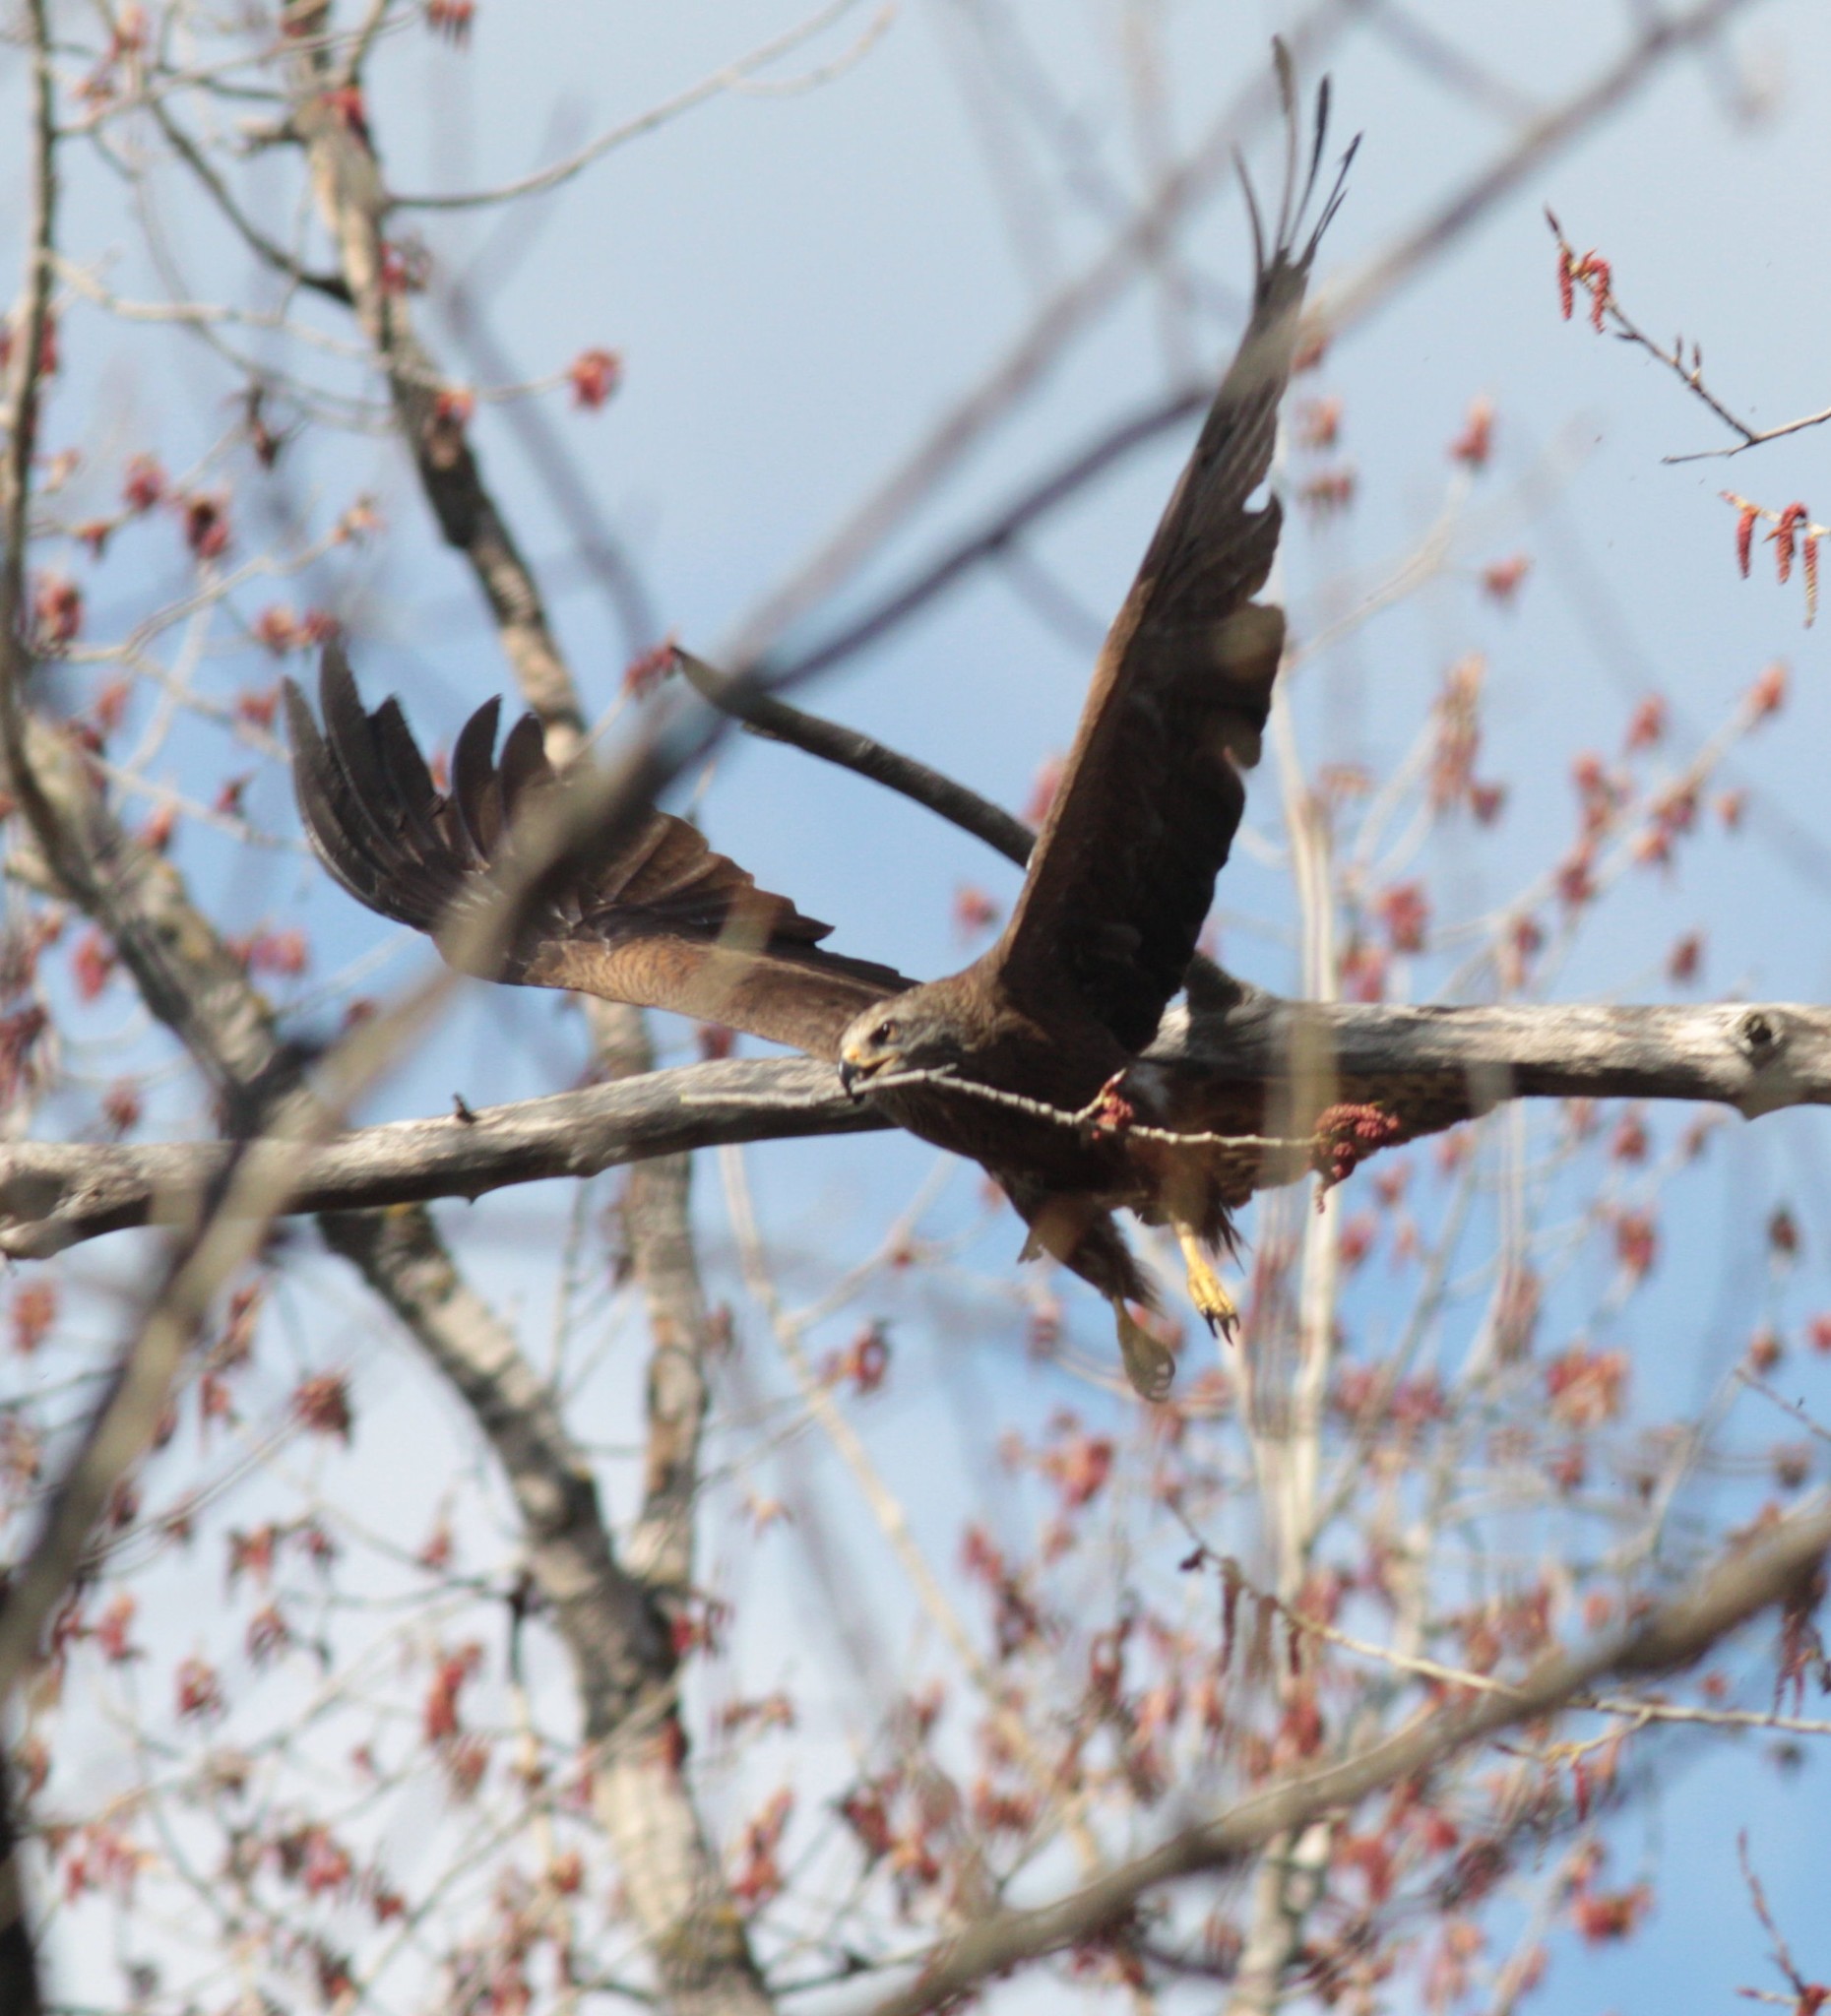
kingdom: Animalia
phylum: Chordata
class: Aves
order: Accipitriformes
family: Accipitridae
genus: Milvus
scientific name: Milvus migrans
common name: Black kite
